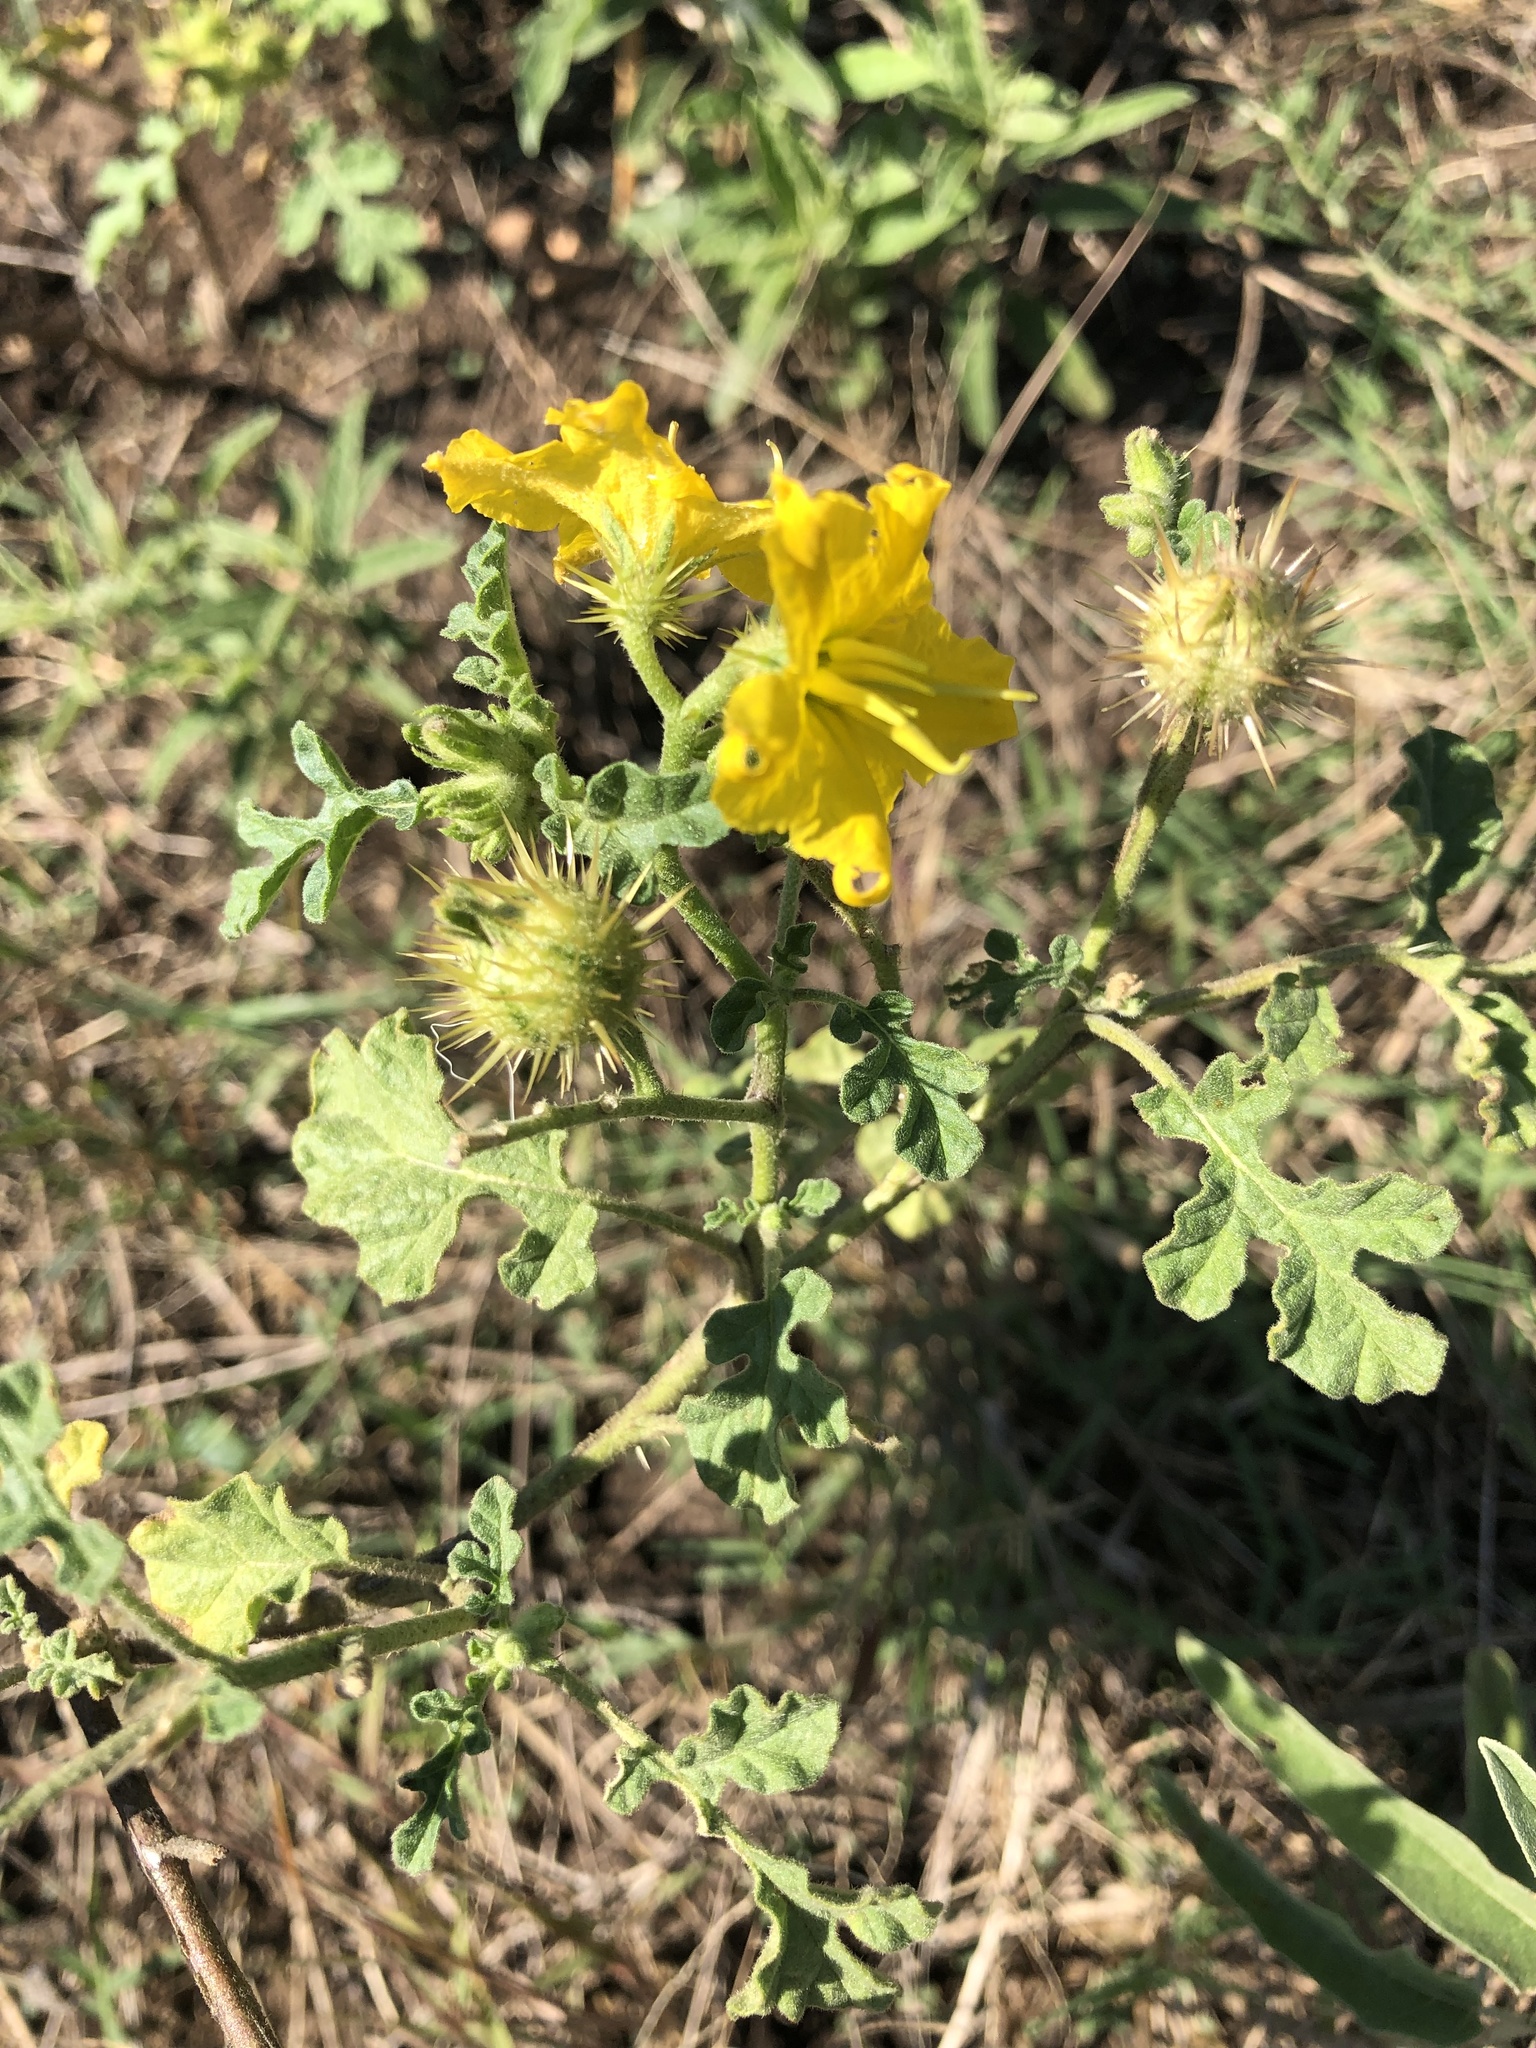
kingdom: Plantae
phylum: Tracheophyta
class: Magnoliopsida
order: Solanales
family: Solanaceae
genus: Solanum
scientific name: Solanum angustifolium
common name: Buffalobur nightshade
